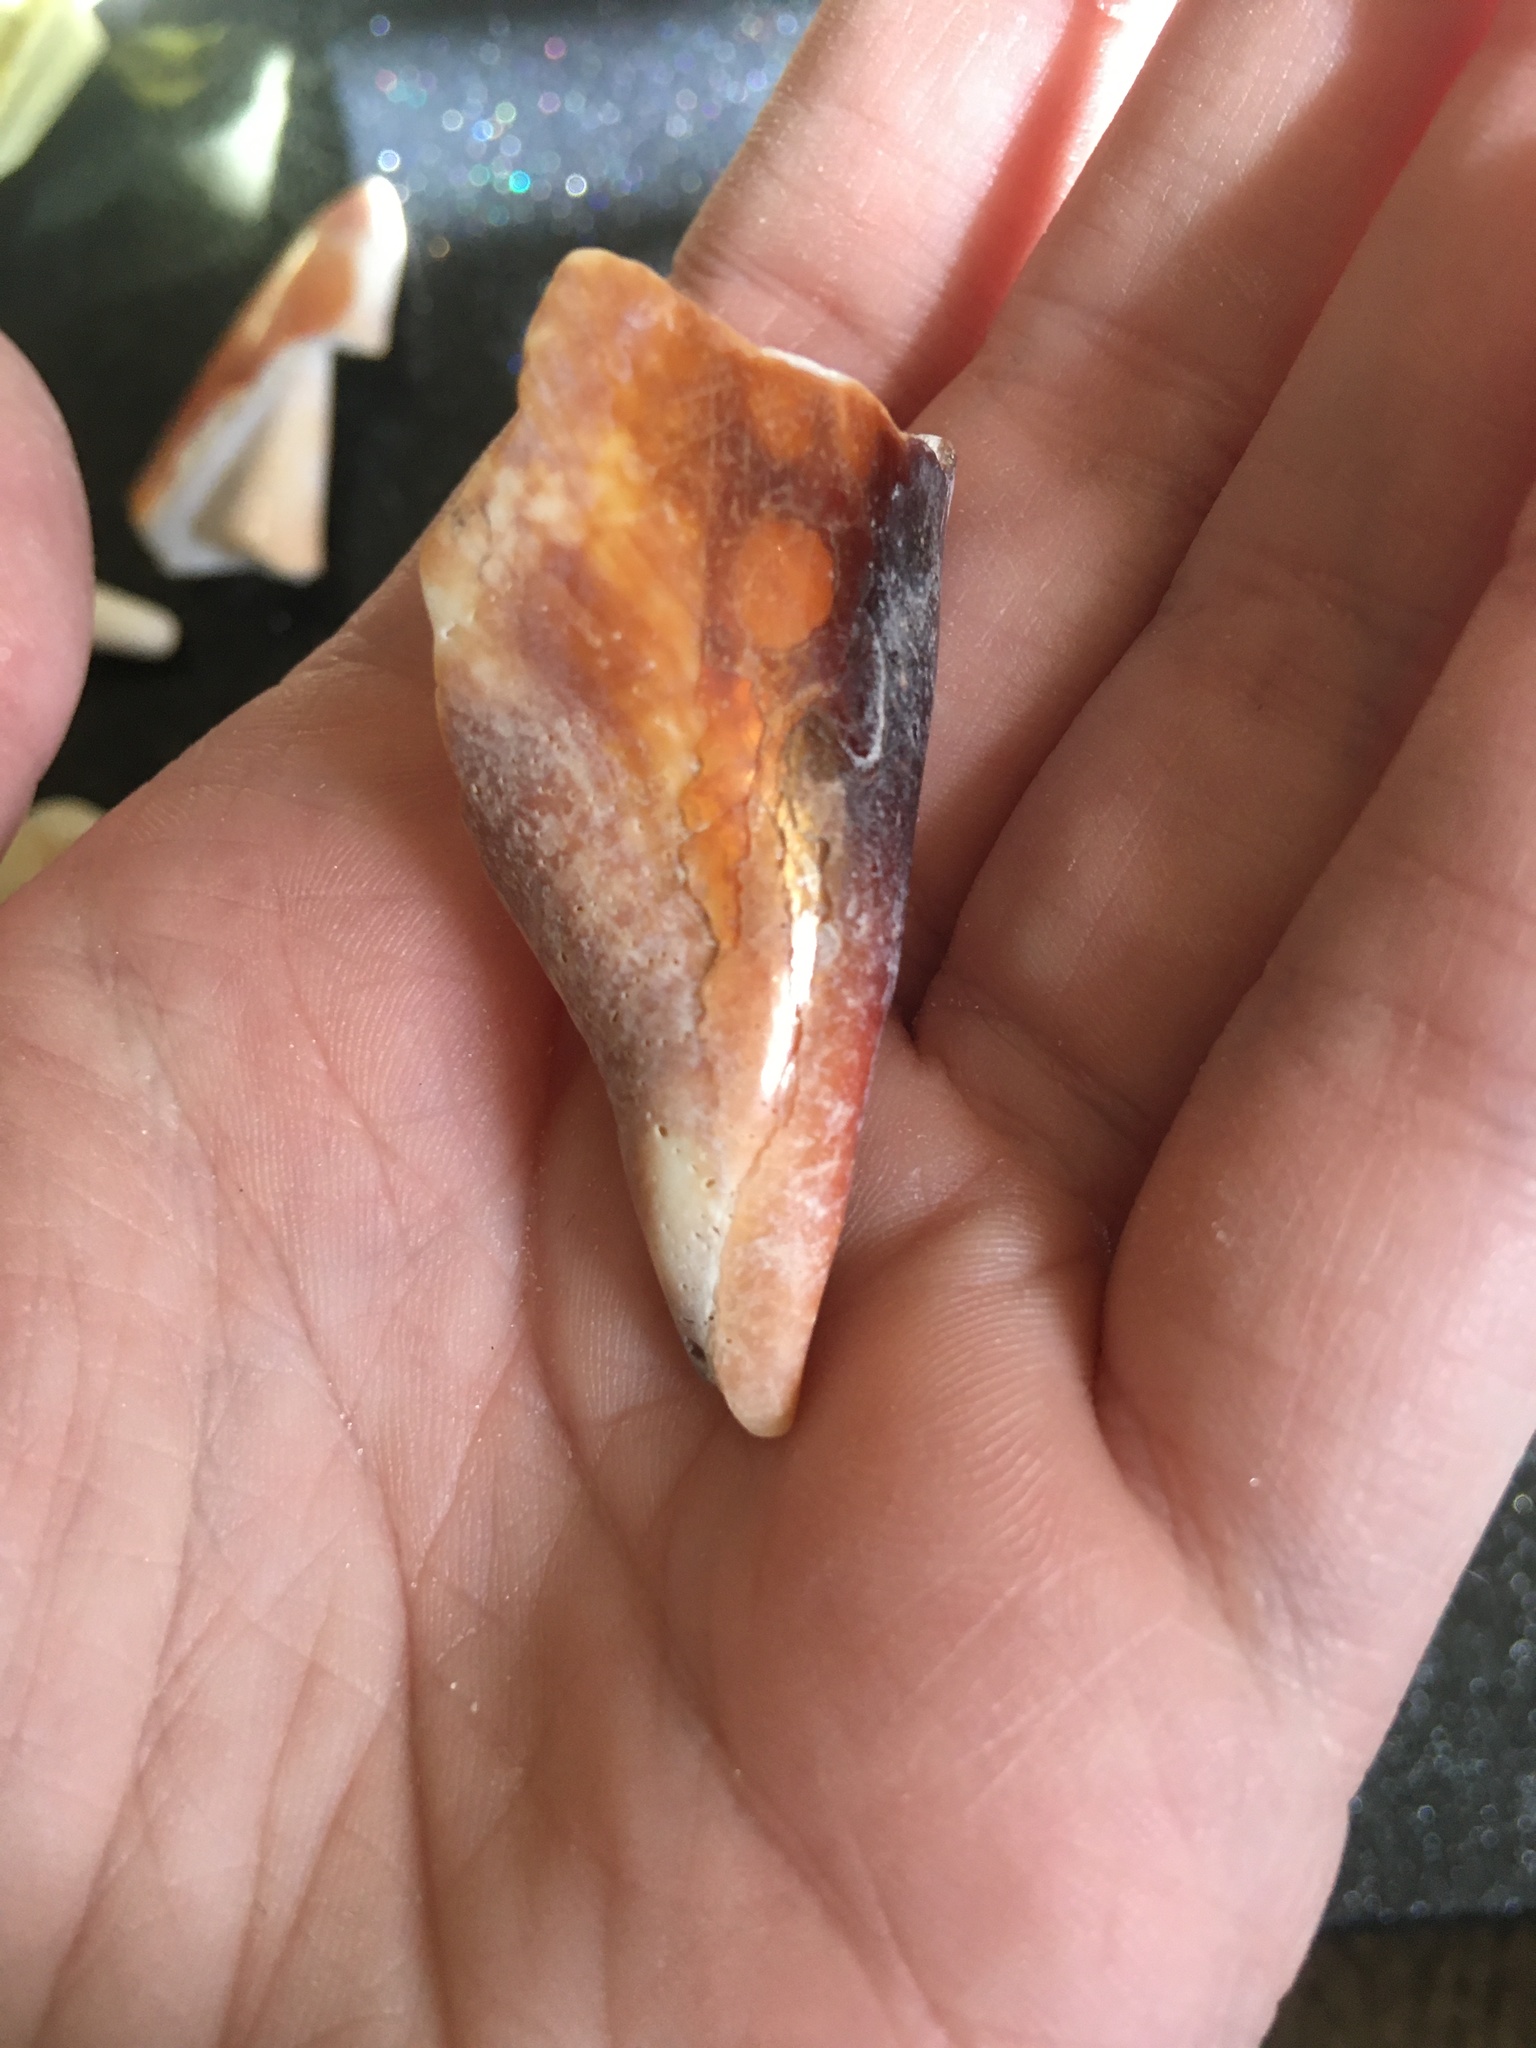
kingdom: Animalia
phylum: Mollusca
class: Gastropoda
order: Littorinimorpha
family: Strombidae
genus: Strombus
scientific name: Strombus alatus
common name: Florida fighting conch
